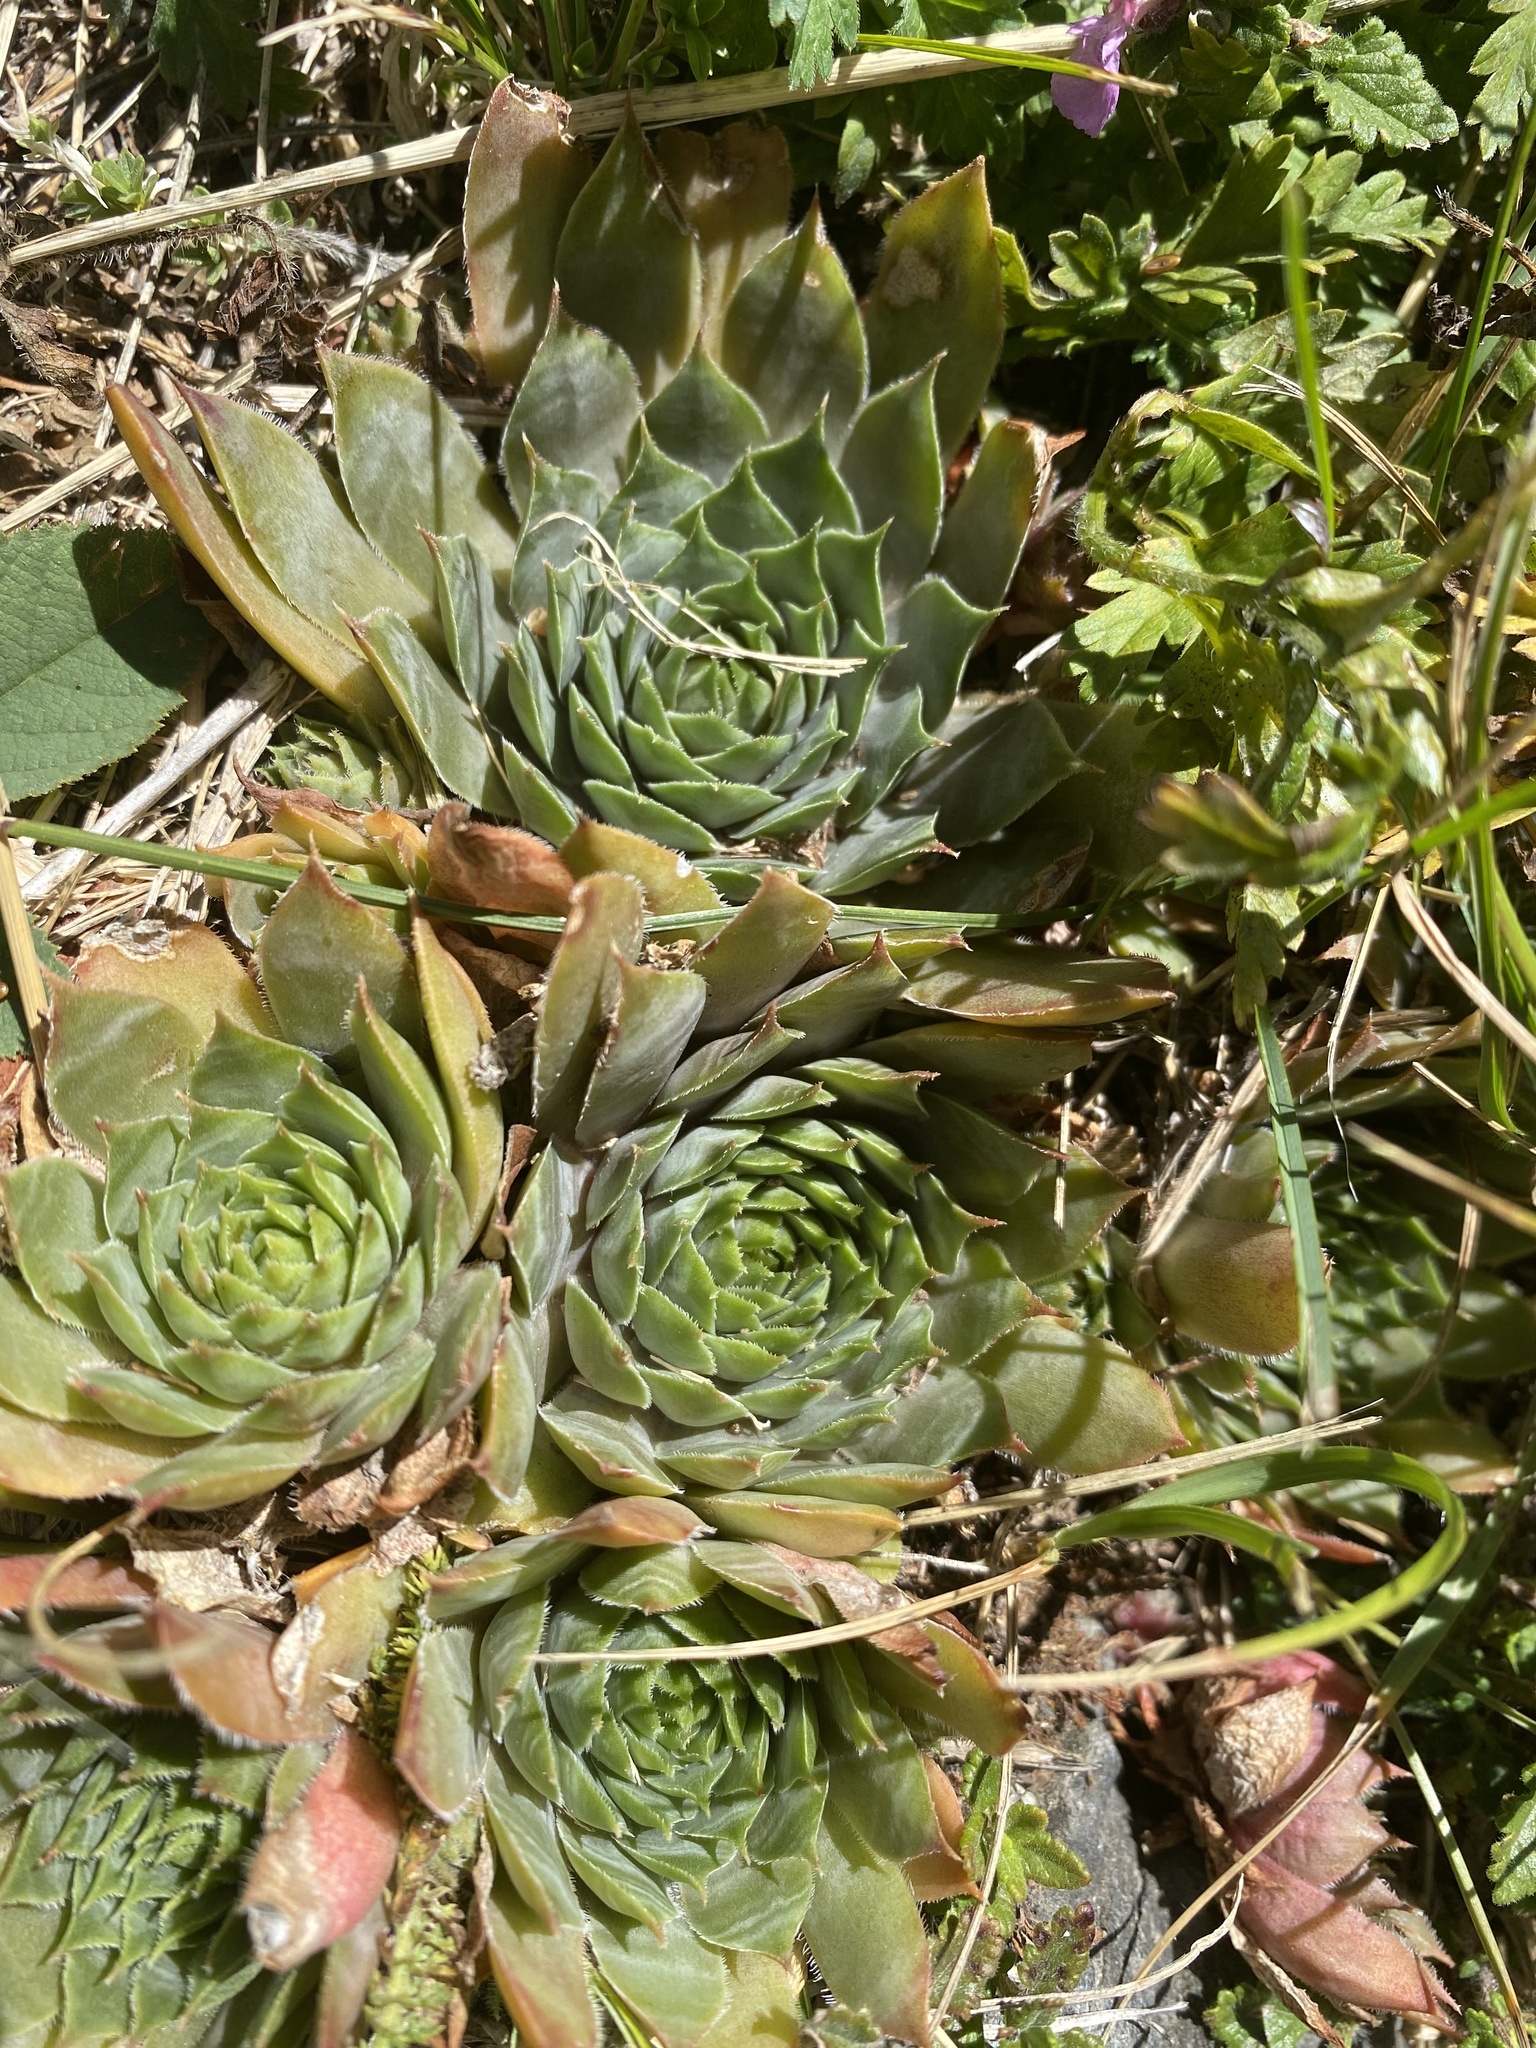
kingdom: Plantae
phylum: Tracheophyta
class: Magnoliopsida
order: Saxifragales
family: Crassulaceae
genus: Sempervivum
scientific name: Sempervivum tectorum
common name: House-leek
